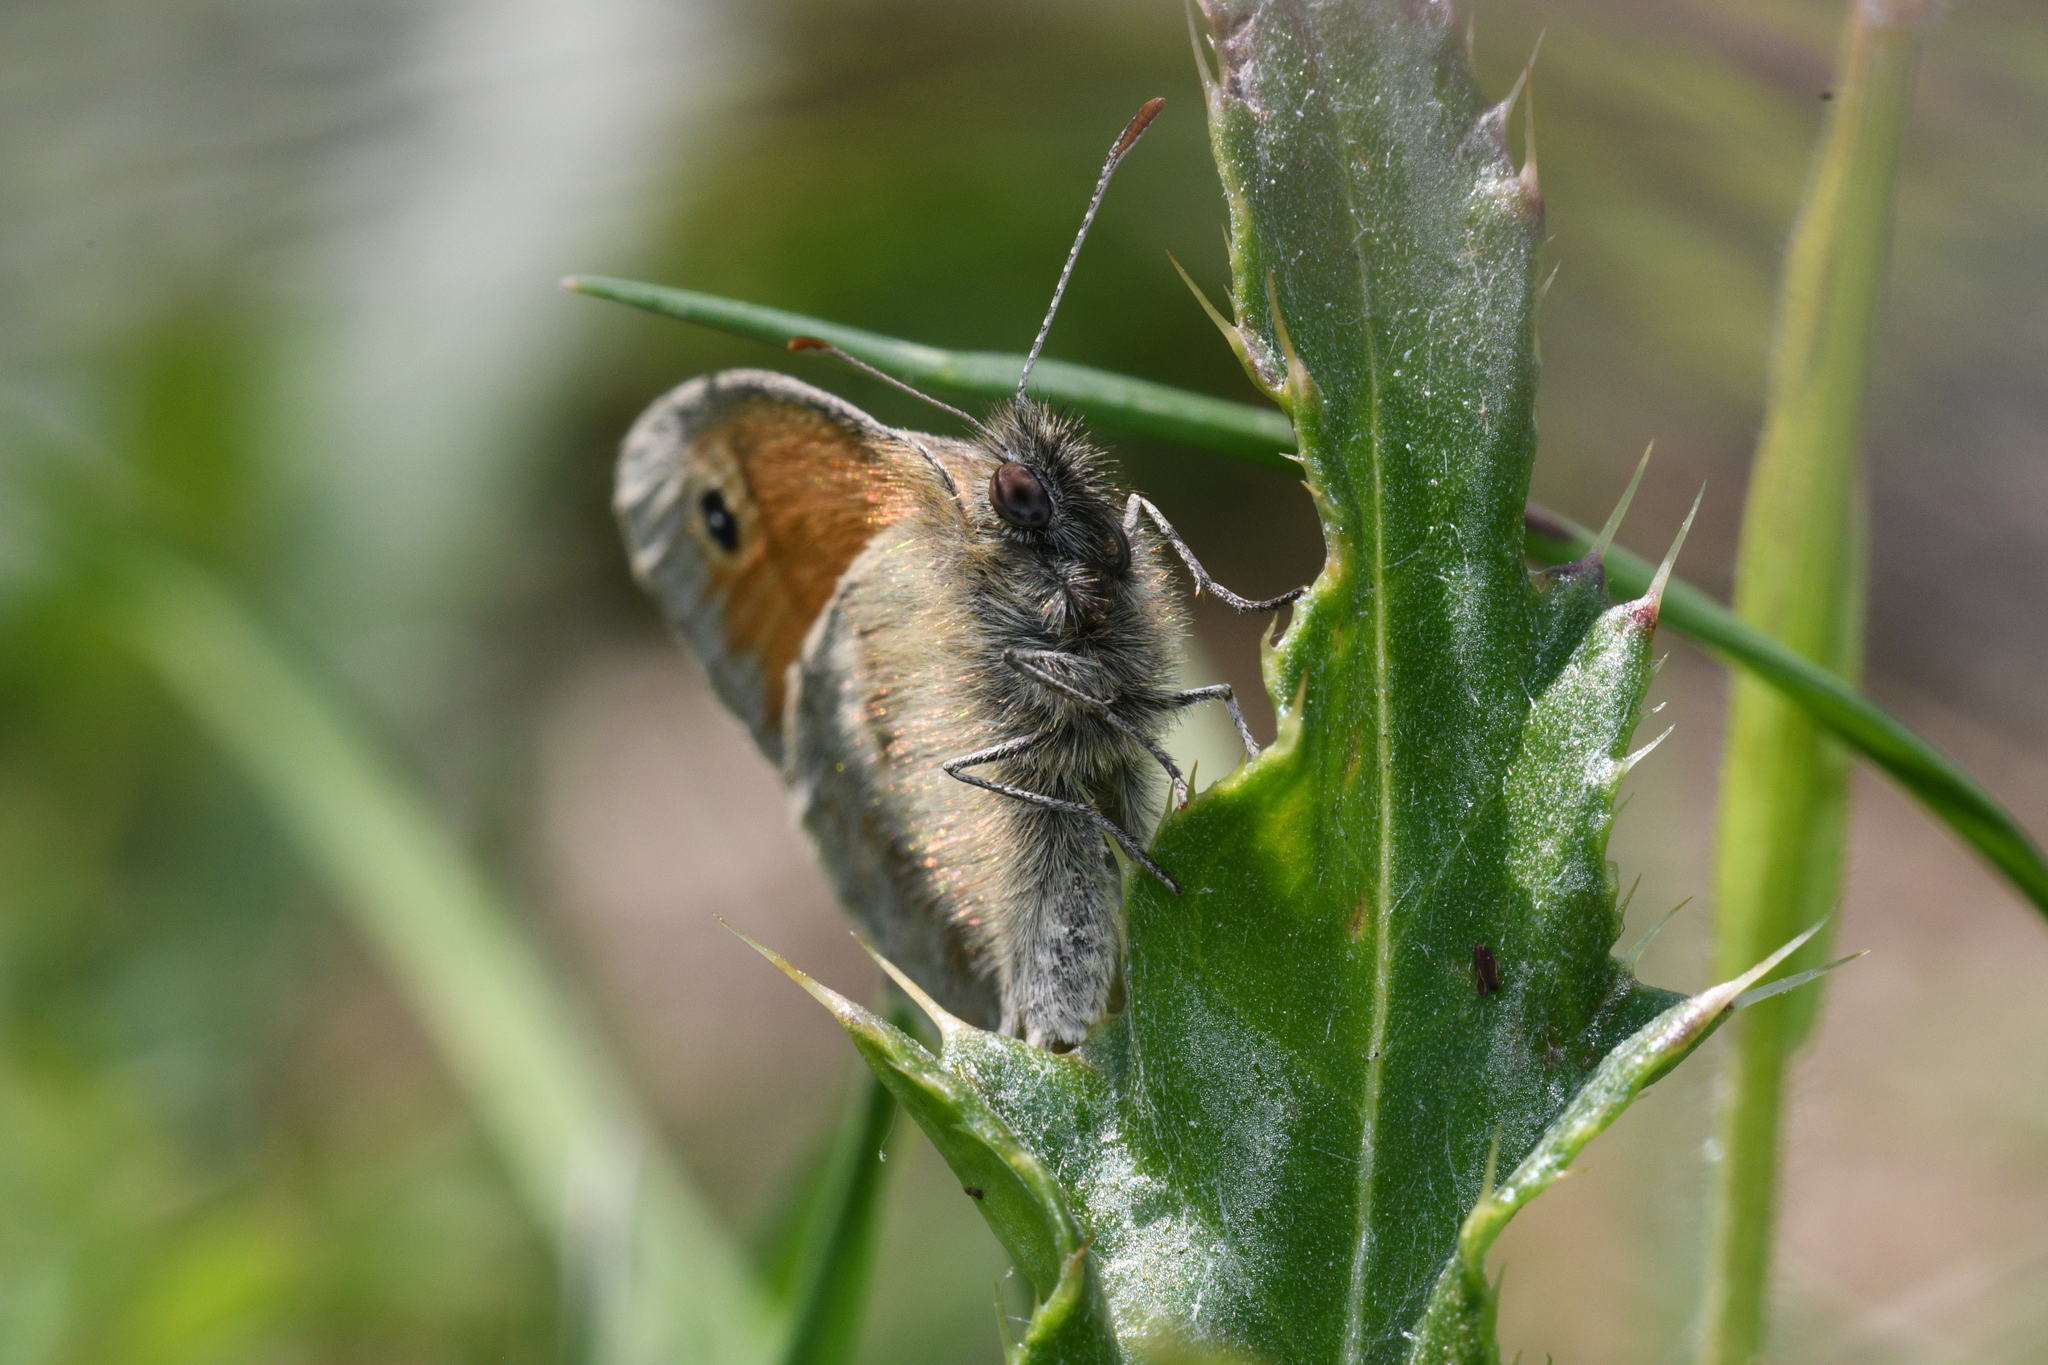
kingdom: Animalia
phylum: Arthropoda
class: Insecta
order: Lepidoptera
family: Nymphalidae
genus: Coenonympha
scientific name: Coenonympha pamphilus
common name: Small heath
